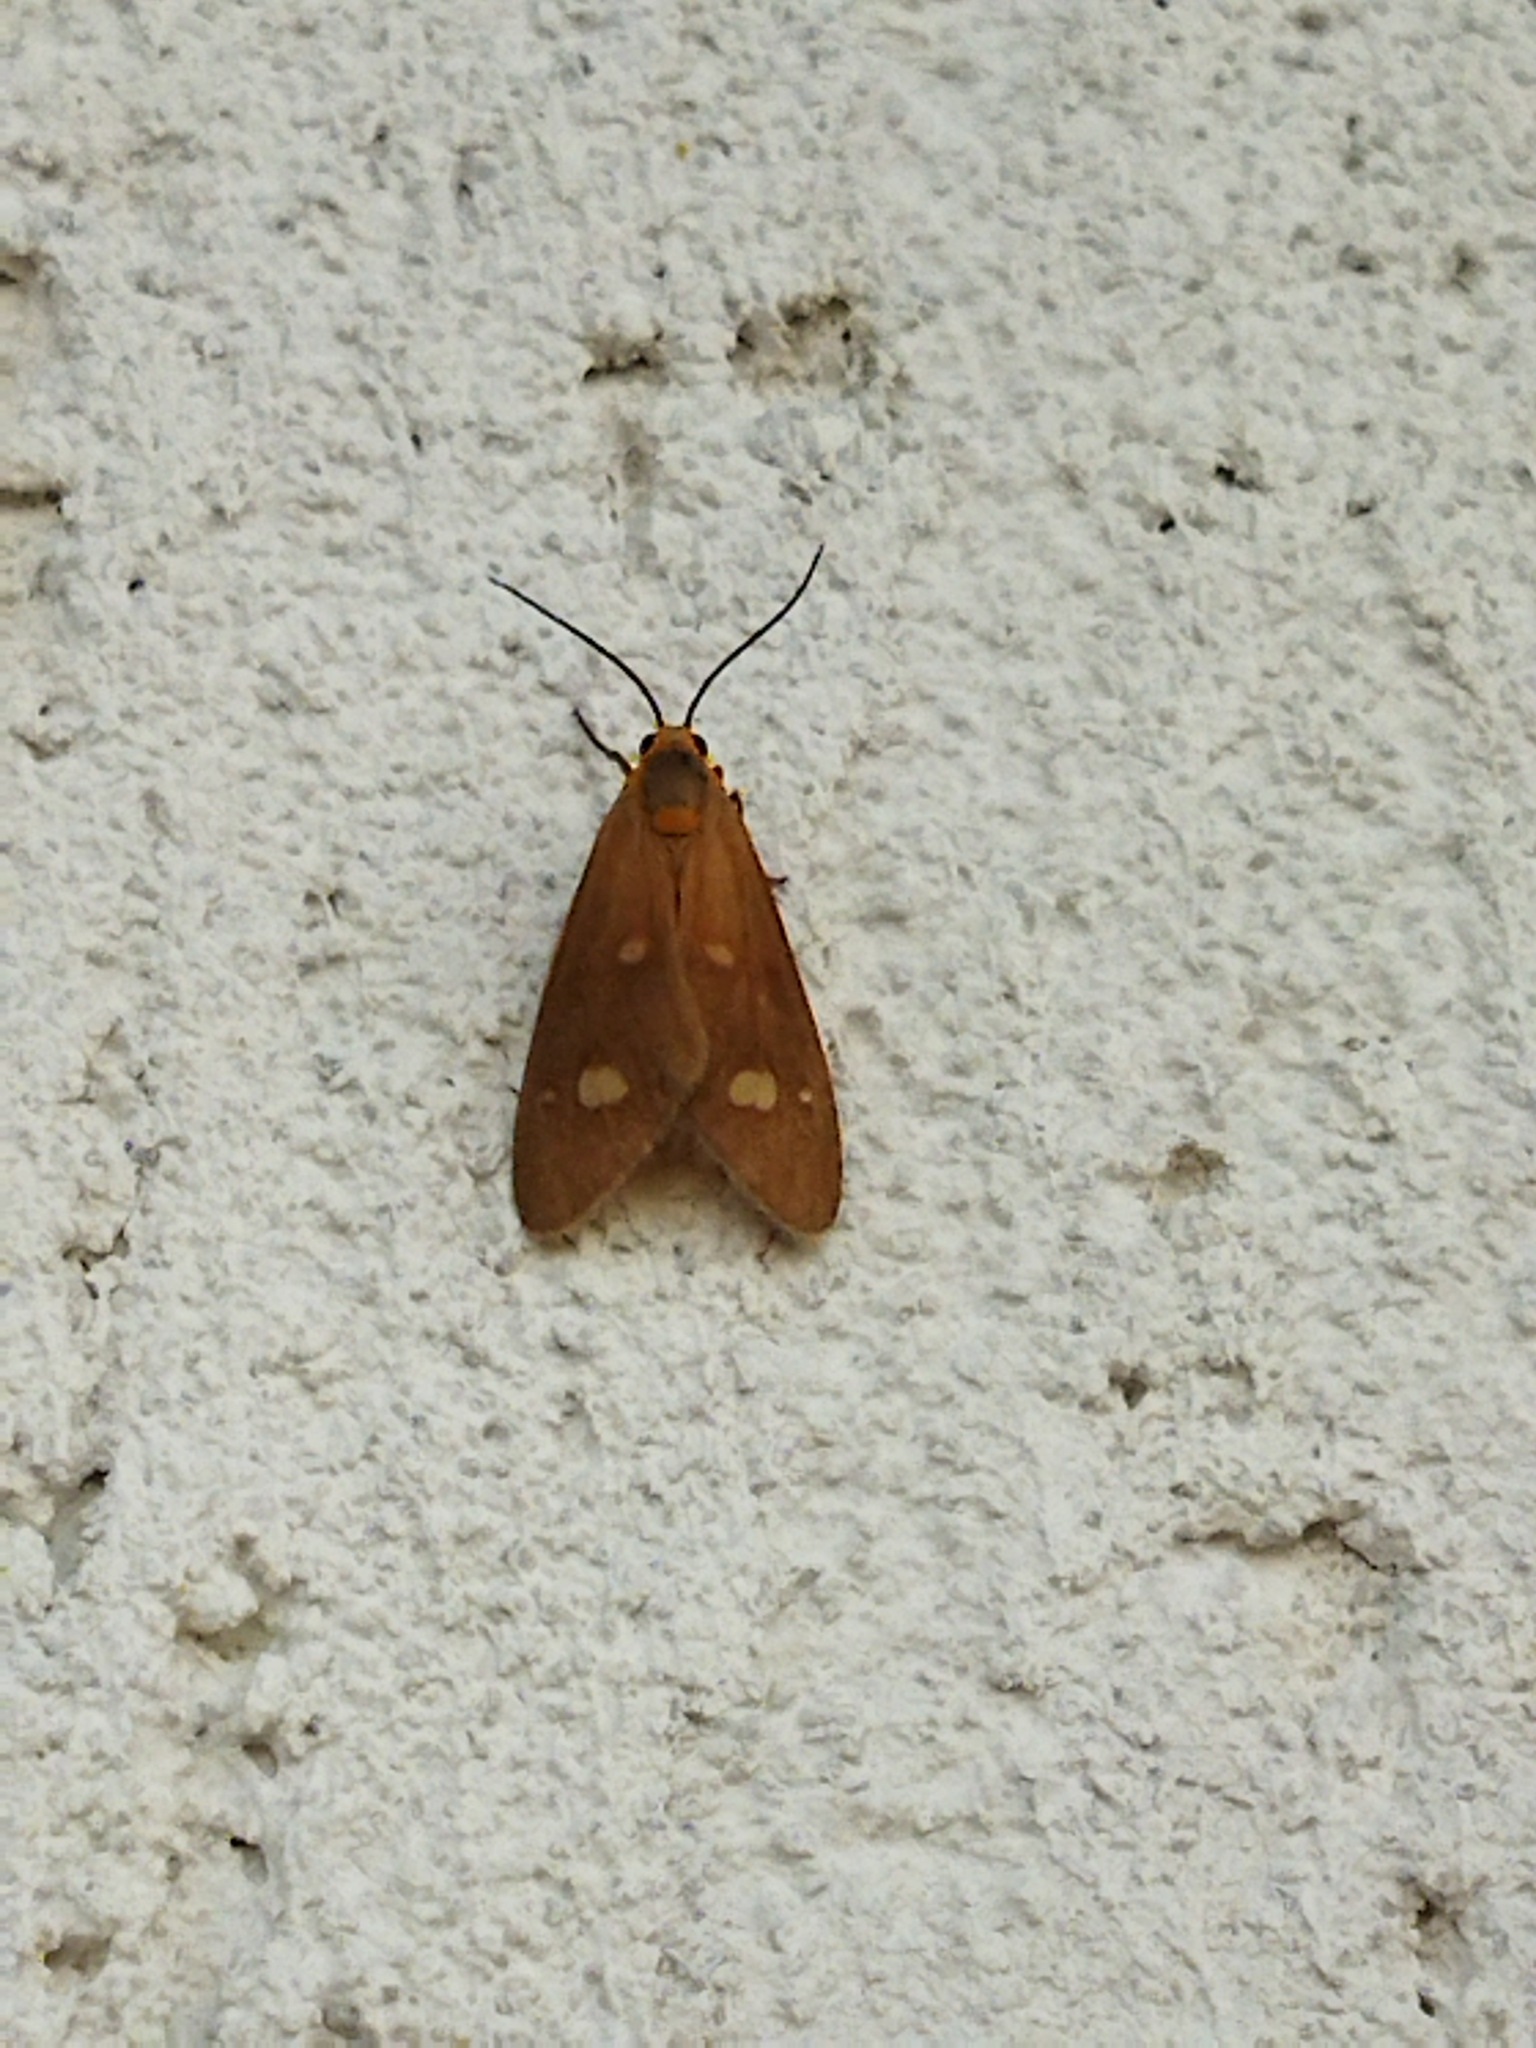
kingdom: Animalia
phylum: Arthropoda
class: Insecta
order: Lepidoptera
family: Erebidae
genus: Dysauxes
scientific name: Dysauxes punctata
